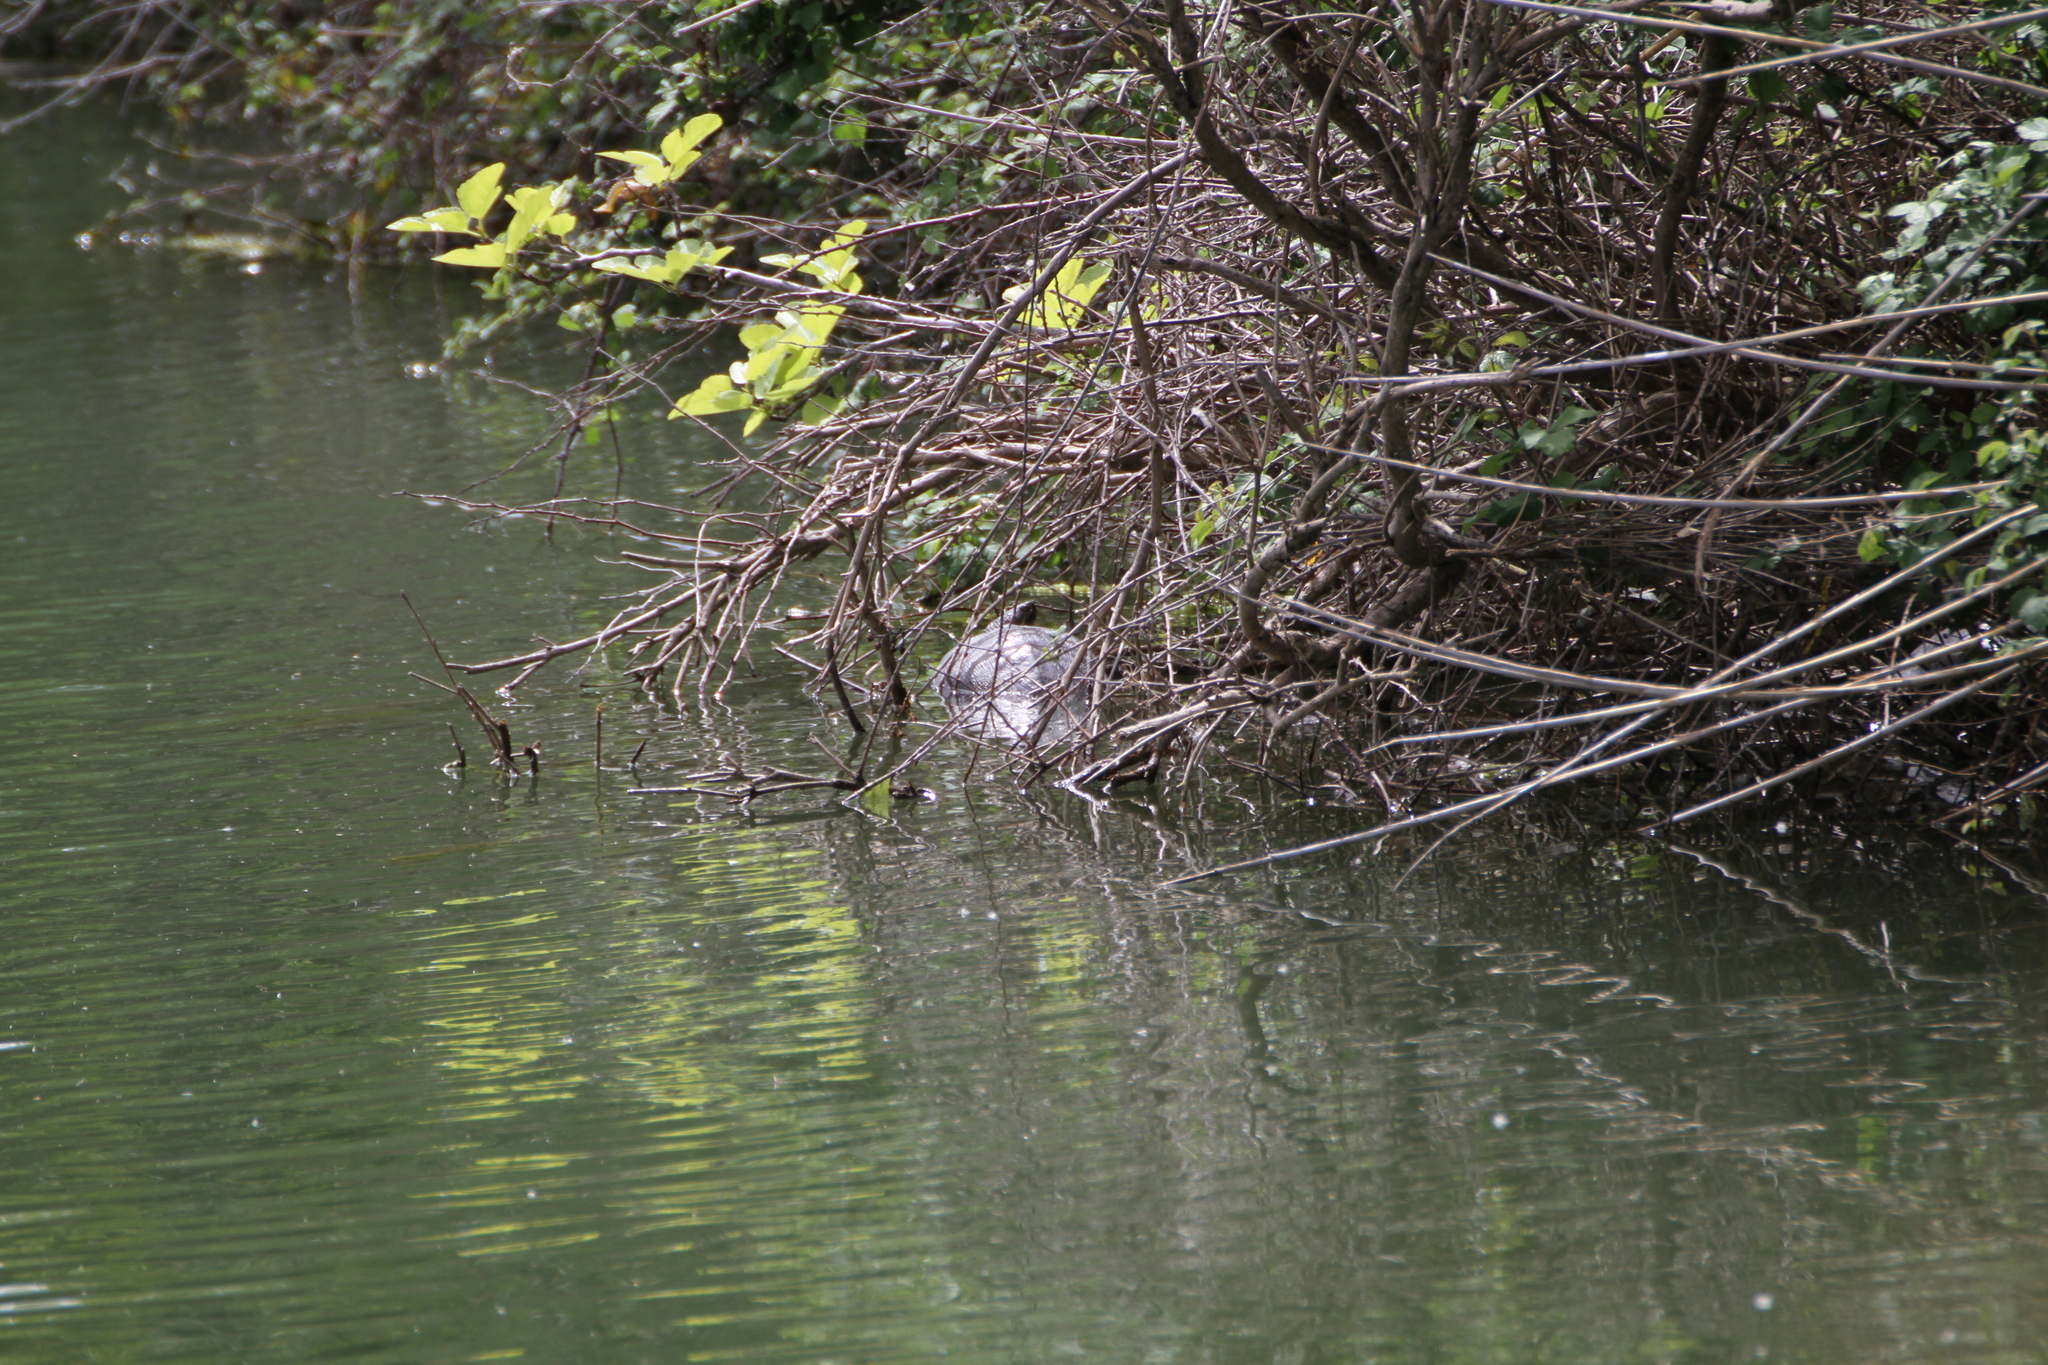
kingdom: Animalia
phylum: Chordata
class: Testudines
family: Emydidae
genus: Trachemys
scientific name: Trachemys scripta
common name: Slider
